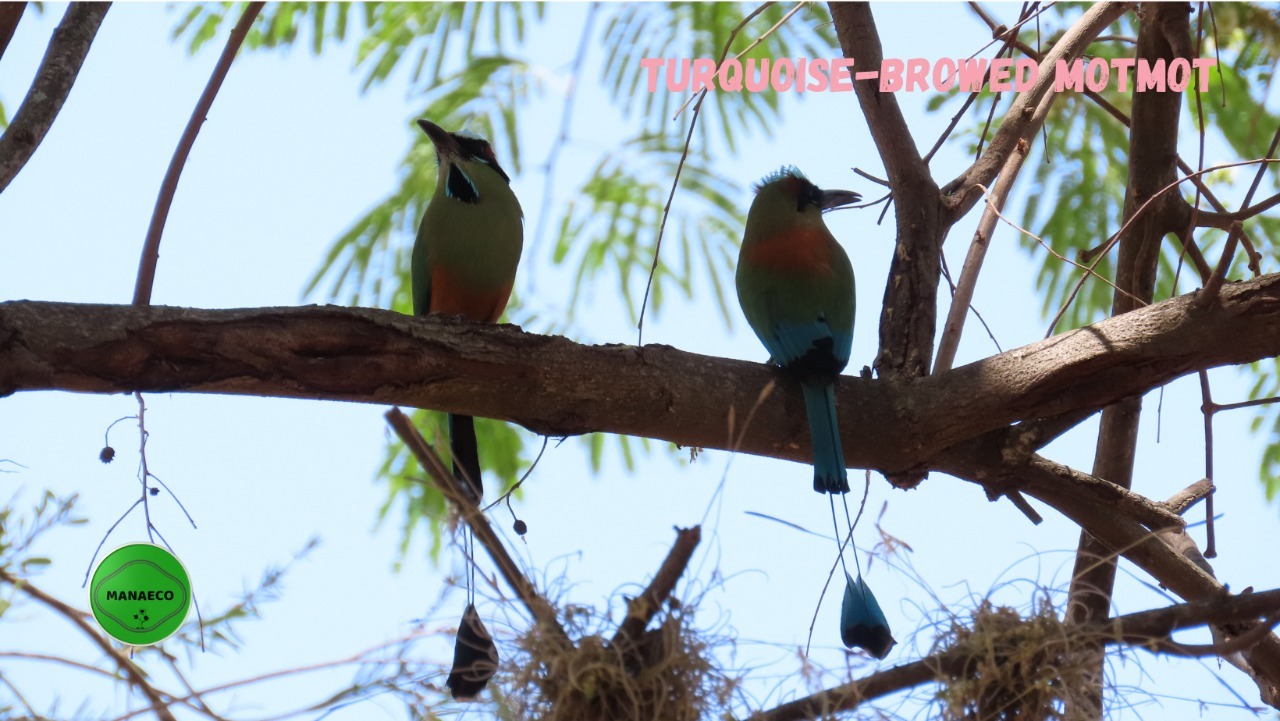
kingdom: Animalia
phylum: Chordata
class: Aves
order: Coraciiformes
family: Momotidae
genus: Eumomota
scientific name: Eumomota superciliosa
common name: Turquoise-browed motmot
